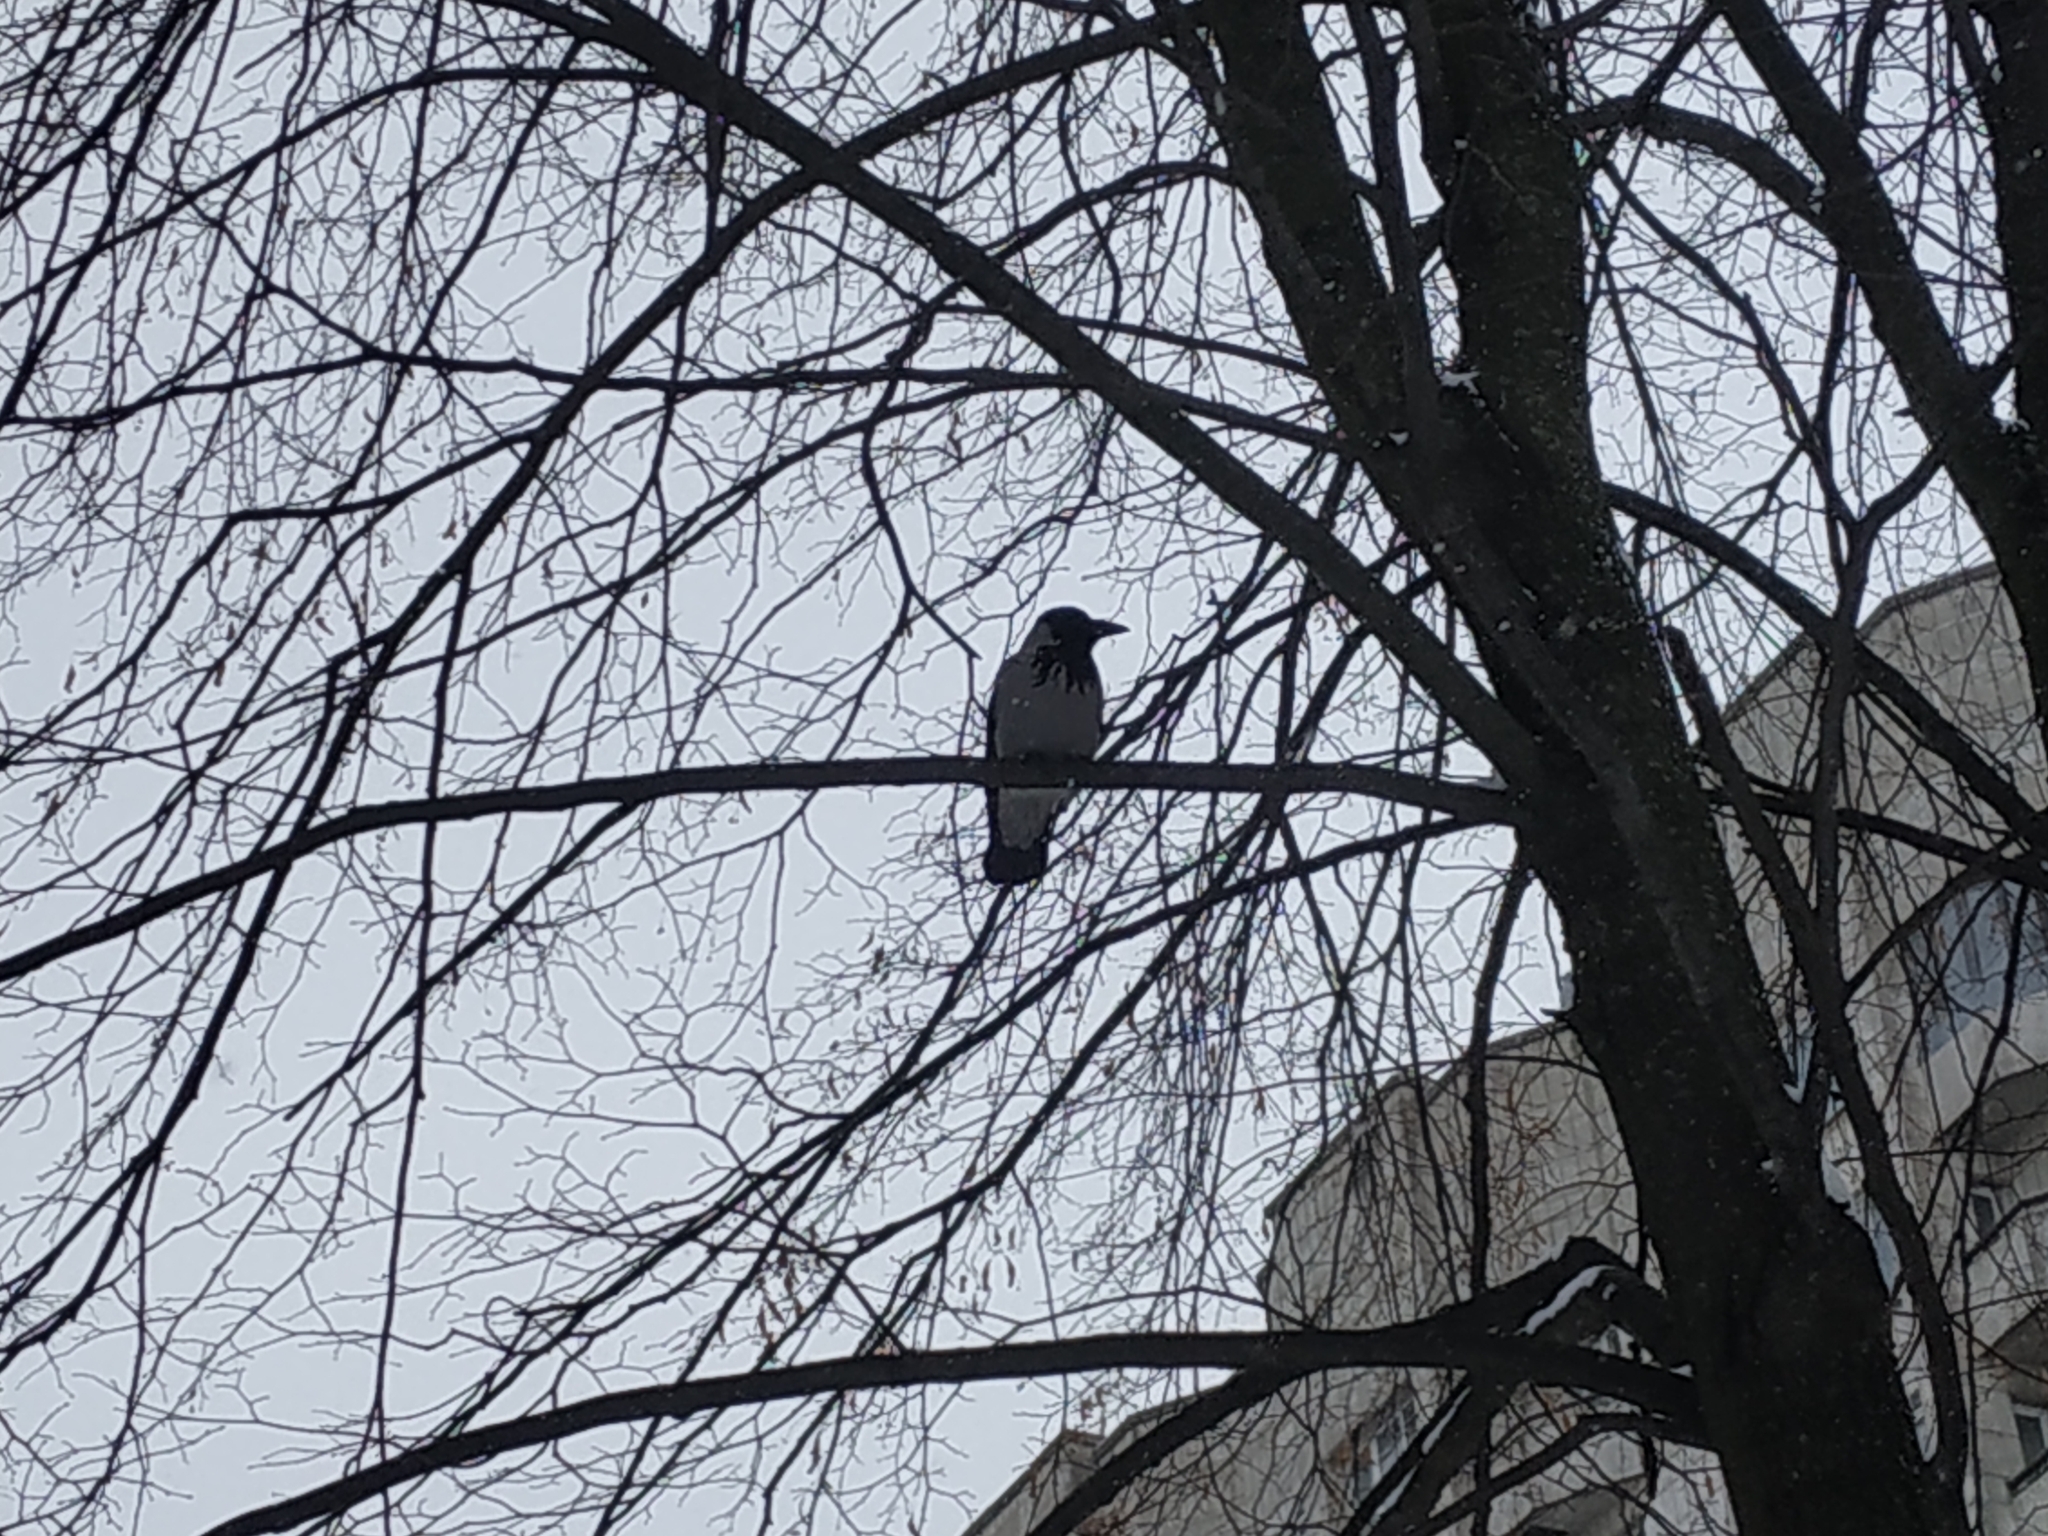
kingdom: Animalia
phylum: Chordata
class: Aves
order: Passeriformes
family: Corvidae
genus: Corvus
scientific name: Corvus cornix
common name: Hooded crow
